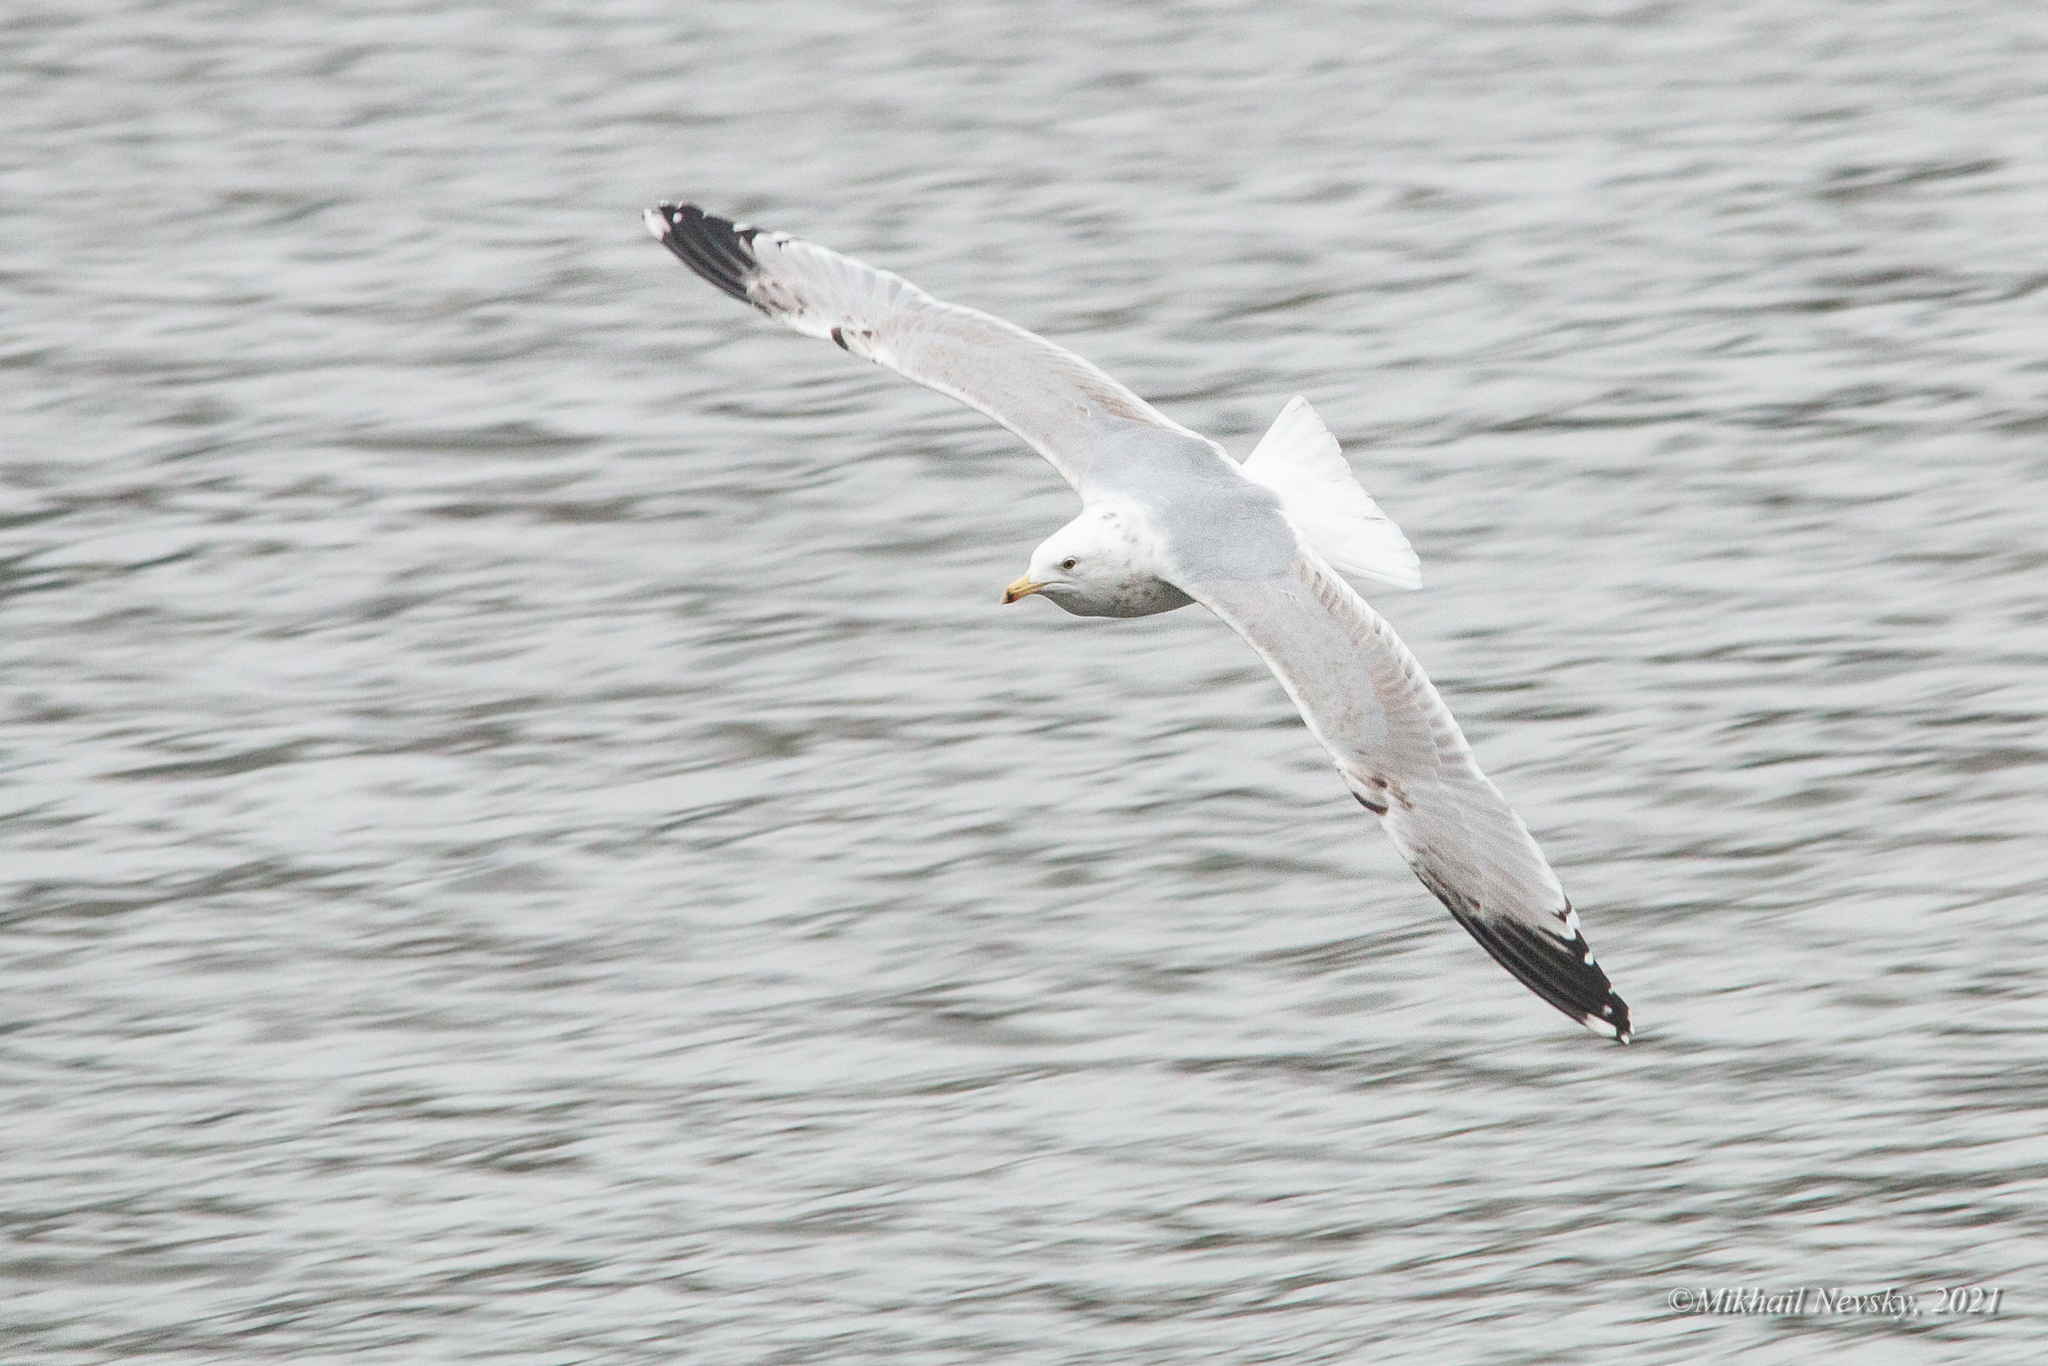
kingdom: Animalia
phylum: Chordata
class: Aves
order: Charadriiformes
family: Laridae
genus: Larus
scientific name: Larus argentatus
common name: Herring gull
